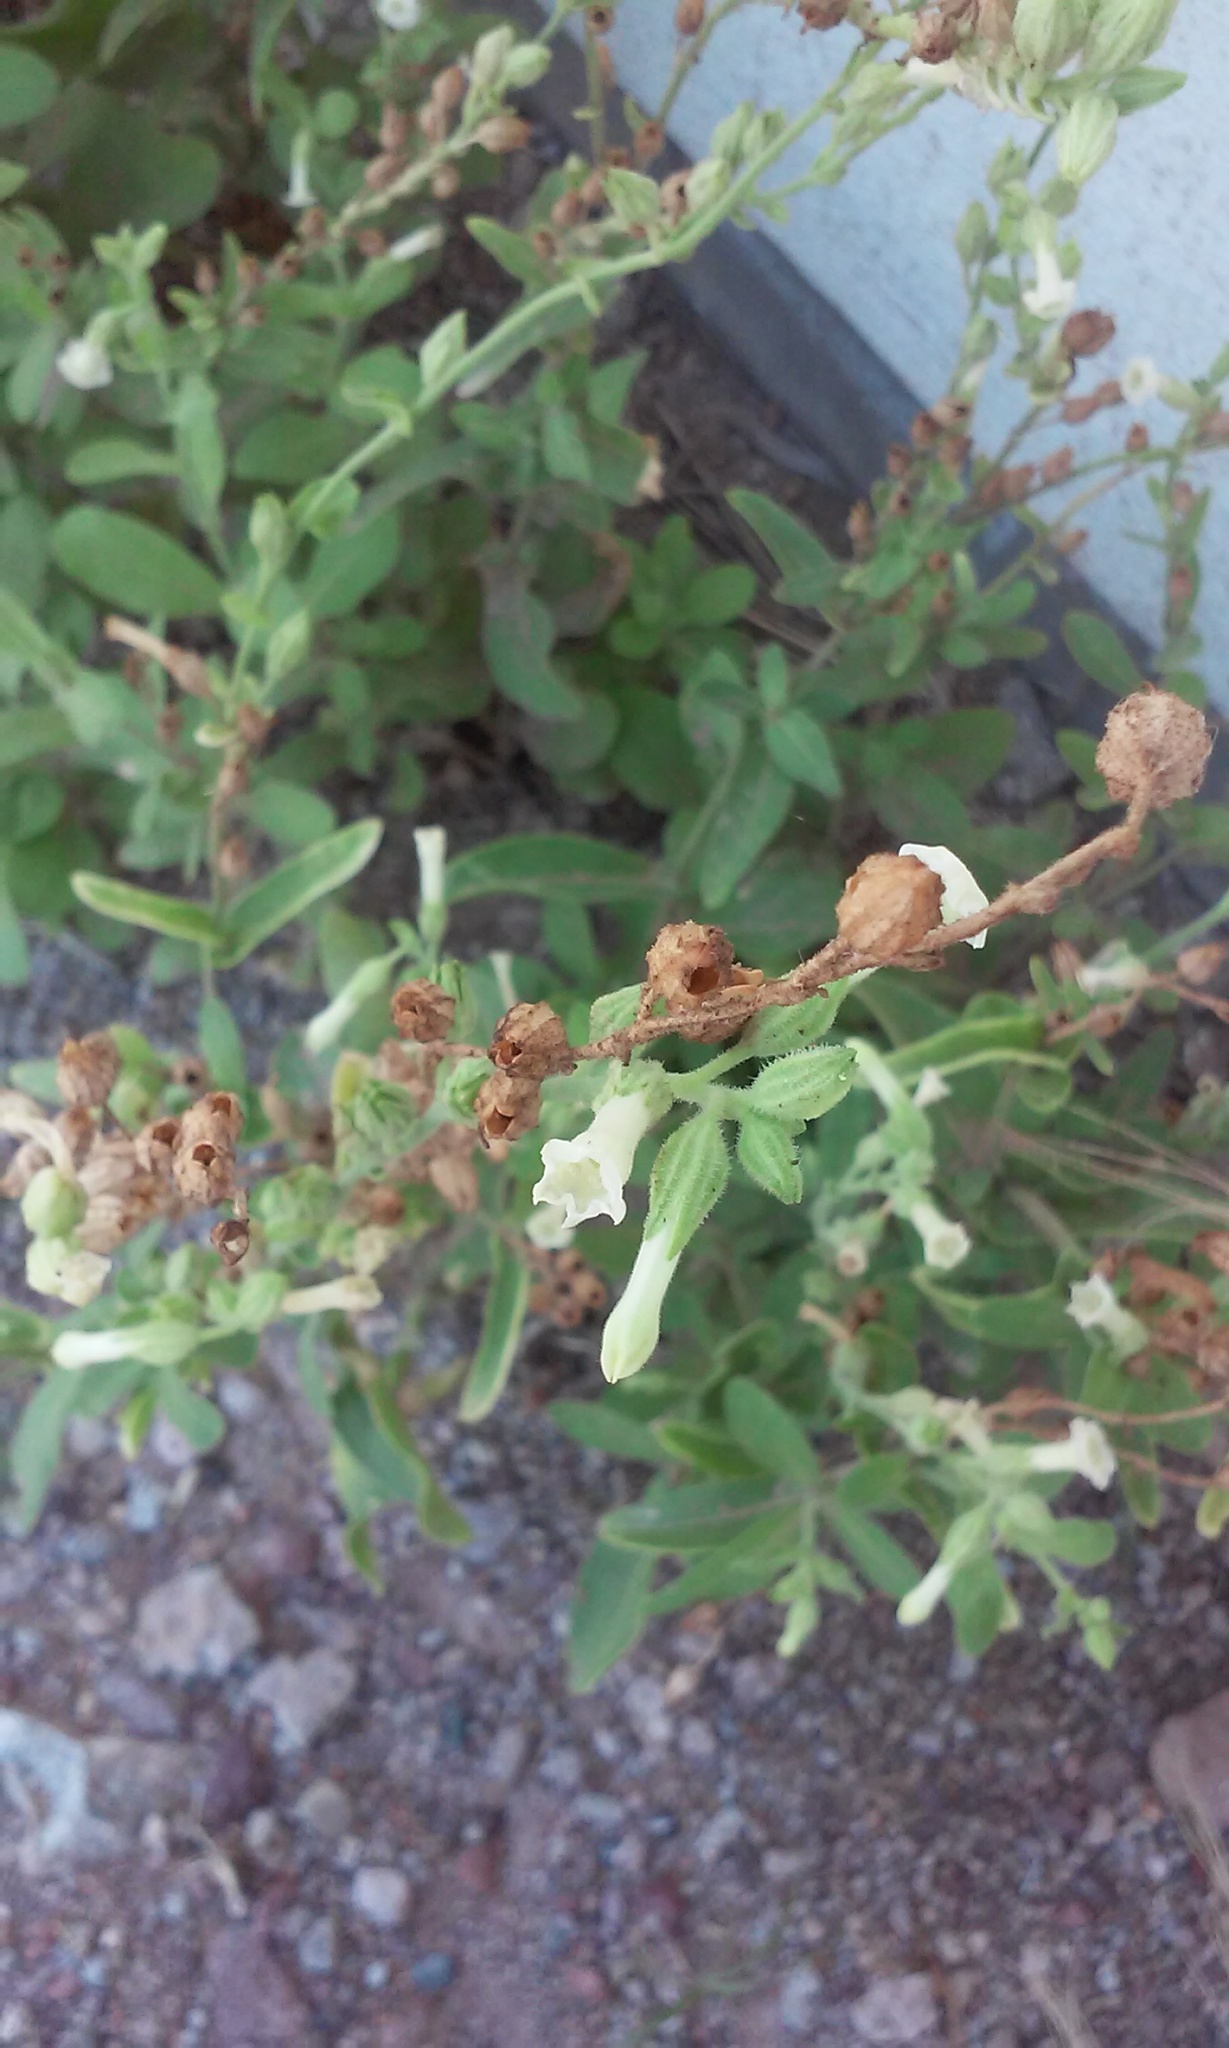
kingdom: Plantae
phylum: Tracheophyta
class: Magnoliopsida
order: Solanales
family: Solanaceae
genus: Nicotiana
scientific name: Nicotiana obtusifolia
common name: Desert tobacco
